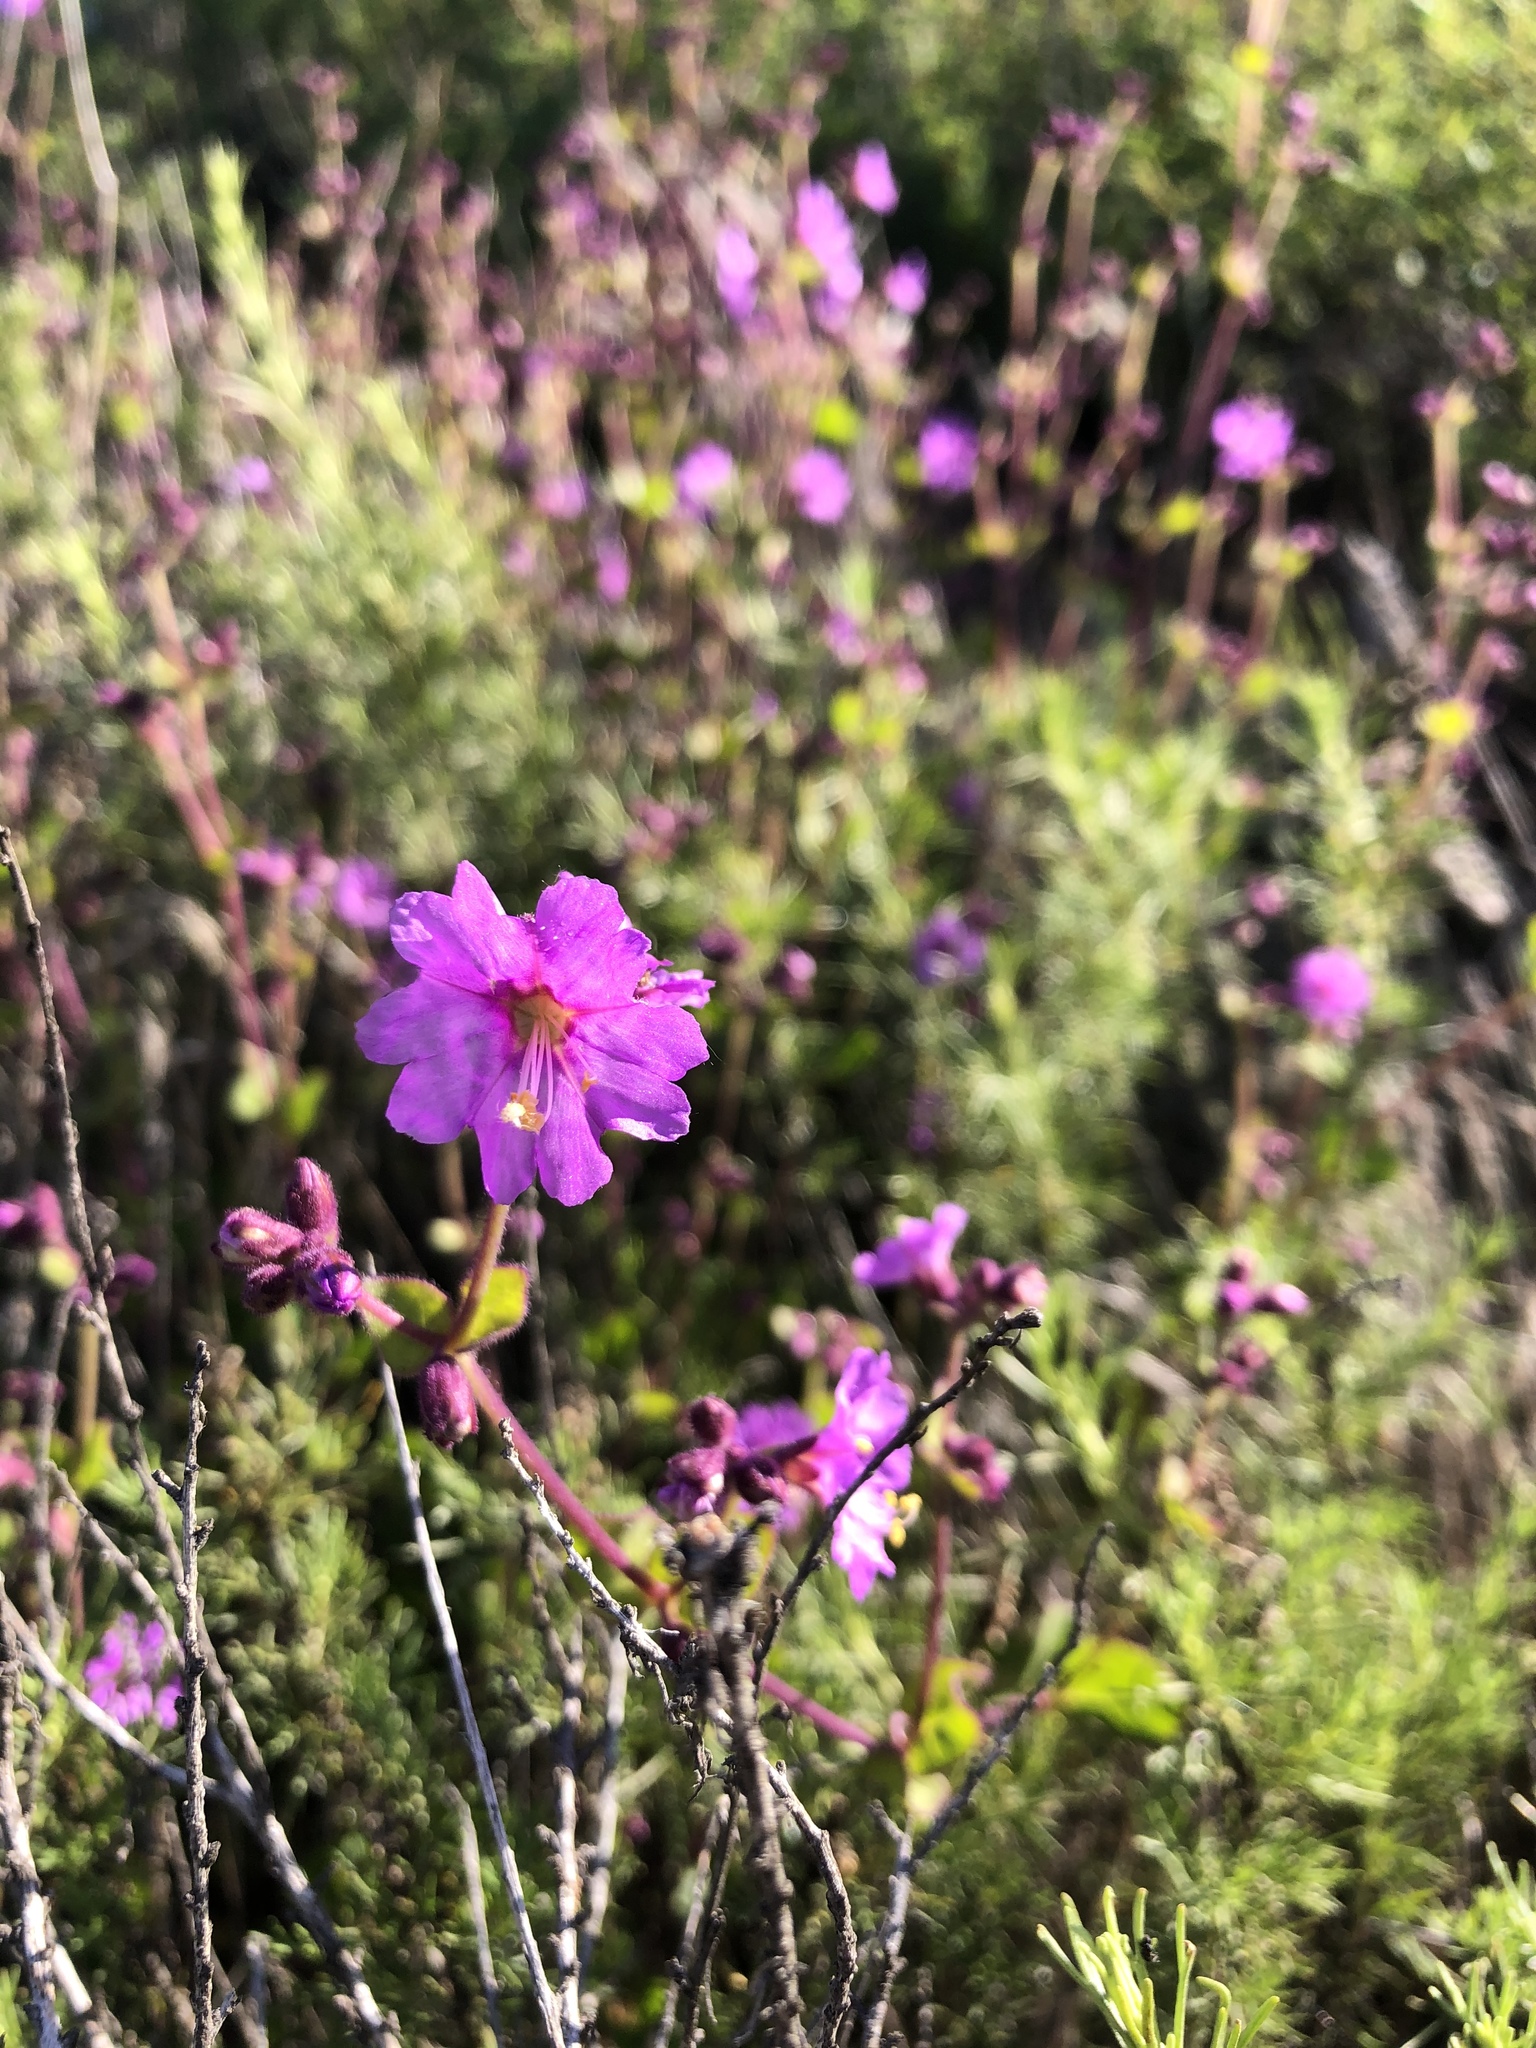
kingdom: Plantae
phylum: Tracheophyta
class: Magnoliopsida
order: Caryophyllales
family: Nyctaginaceae
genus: Mirabilis
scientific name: Mirabilis laevis
